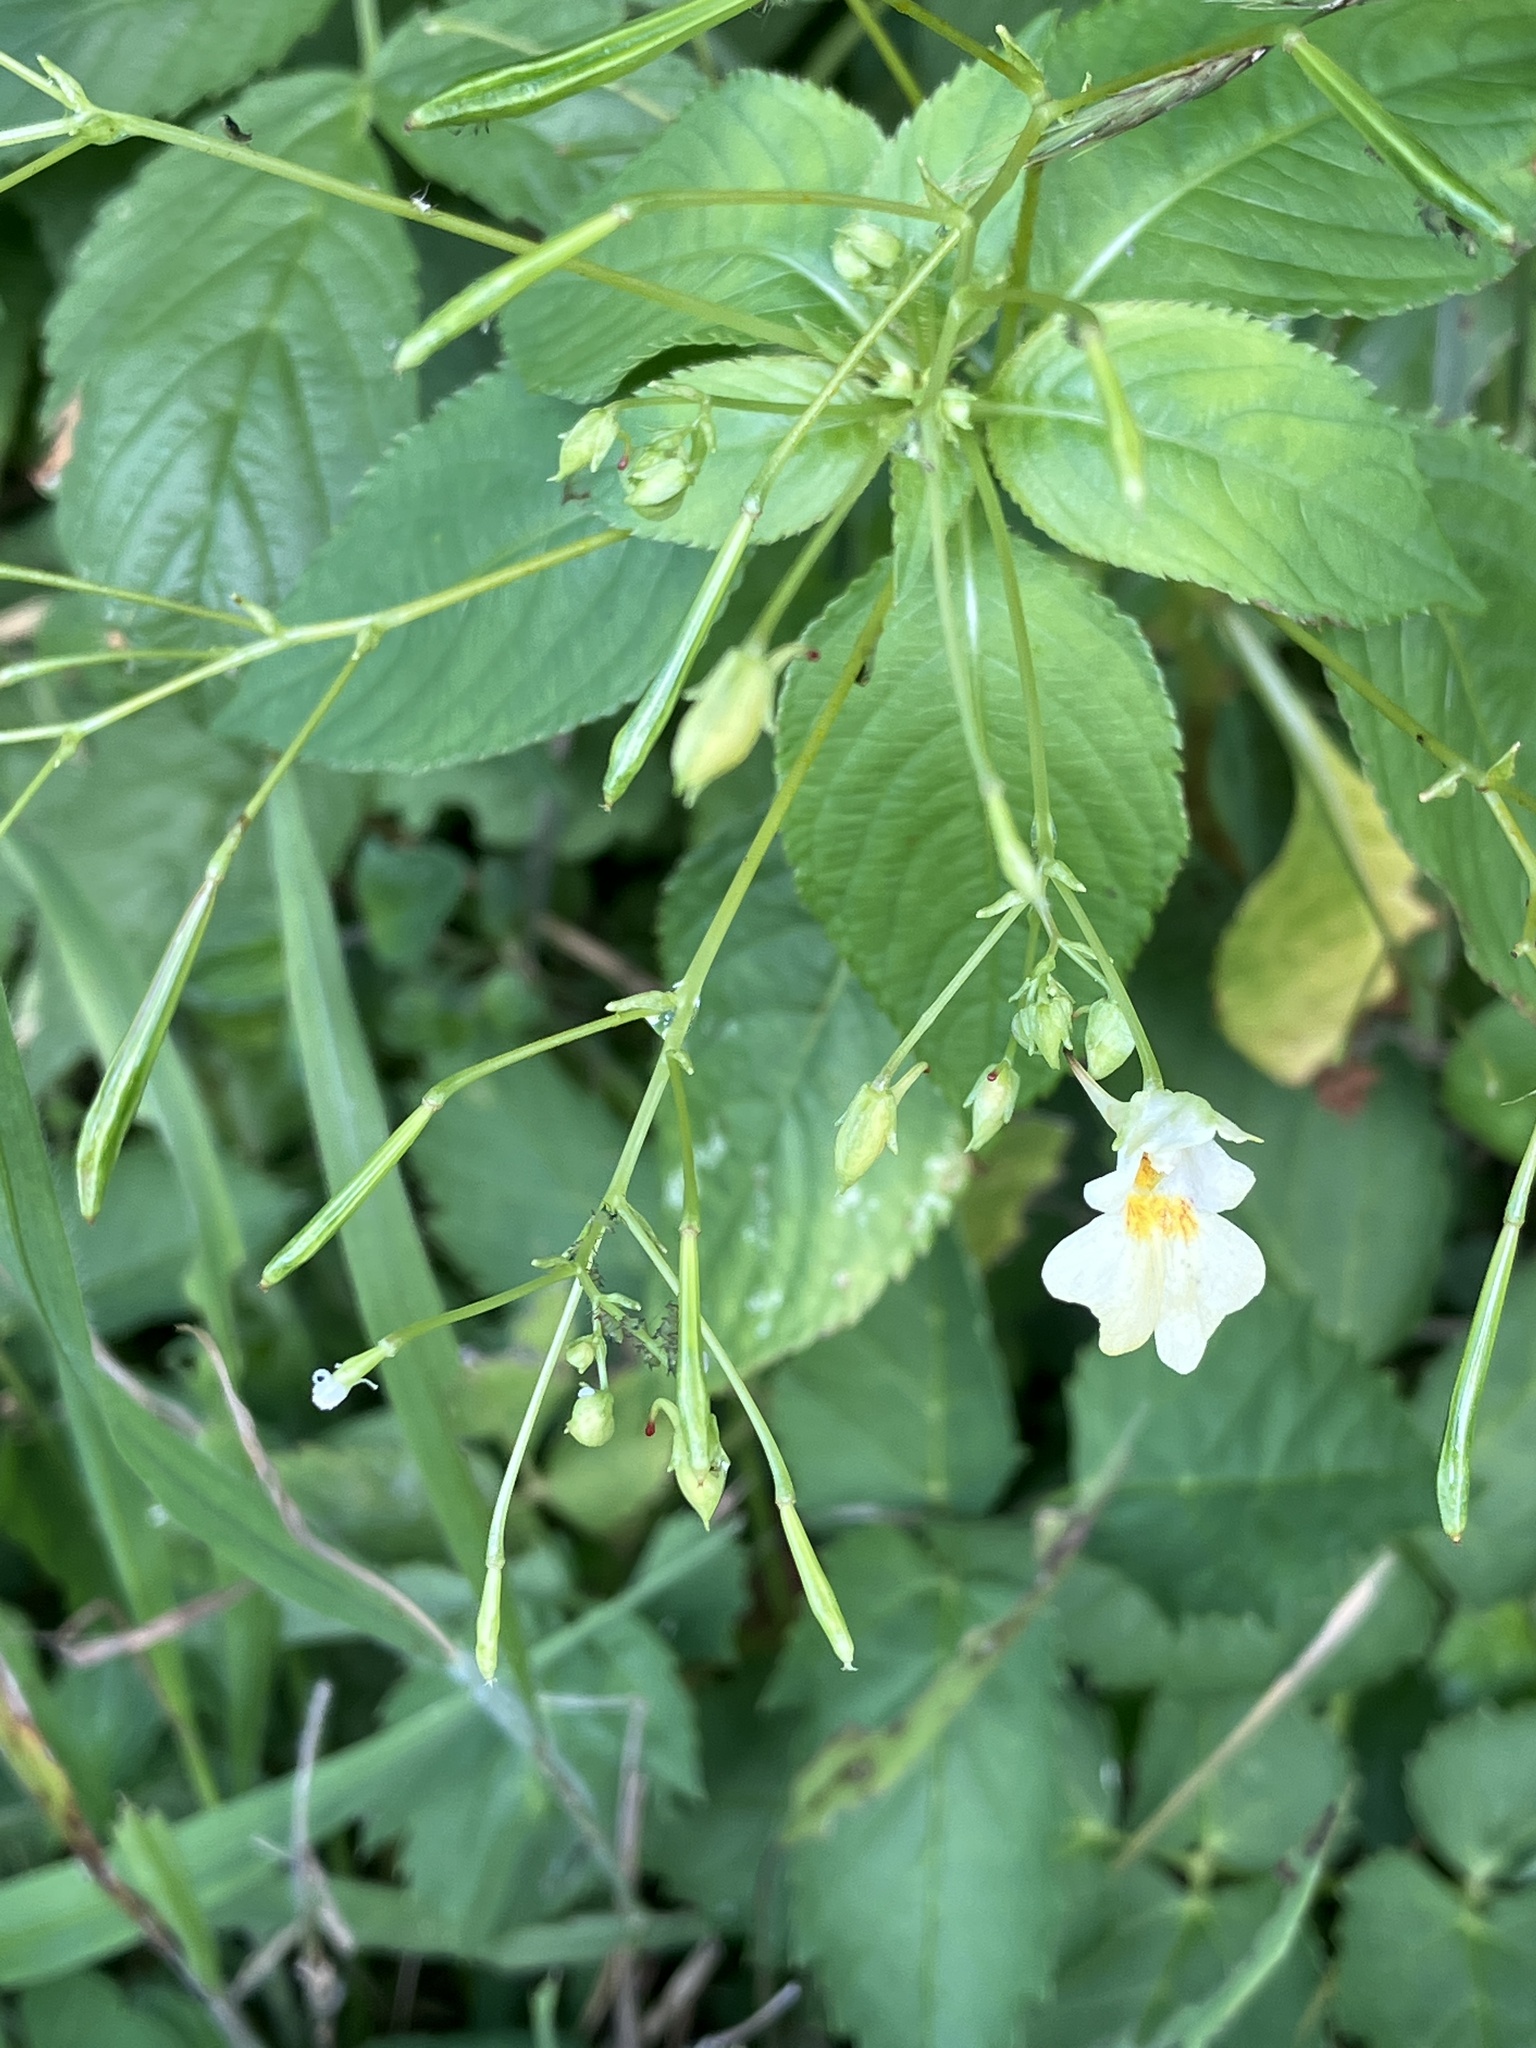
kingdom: Plantae
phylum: Tracheophyta
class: Magnoliopsida
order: Ericales
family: Balsaminaceae
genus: Impatiens
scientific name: Impatiens parviflora
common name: Small balsam
